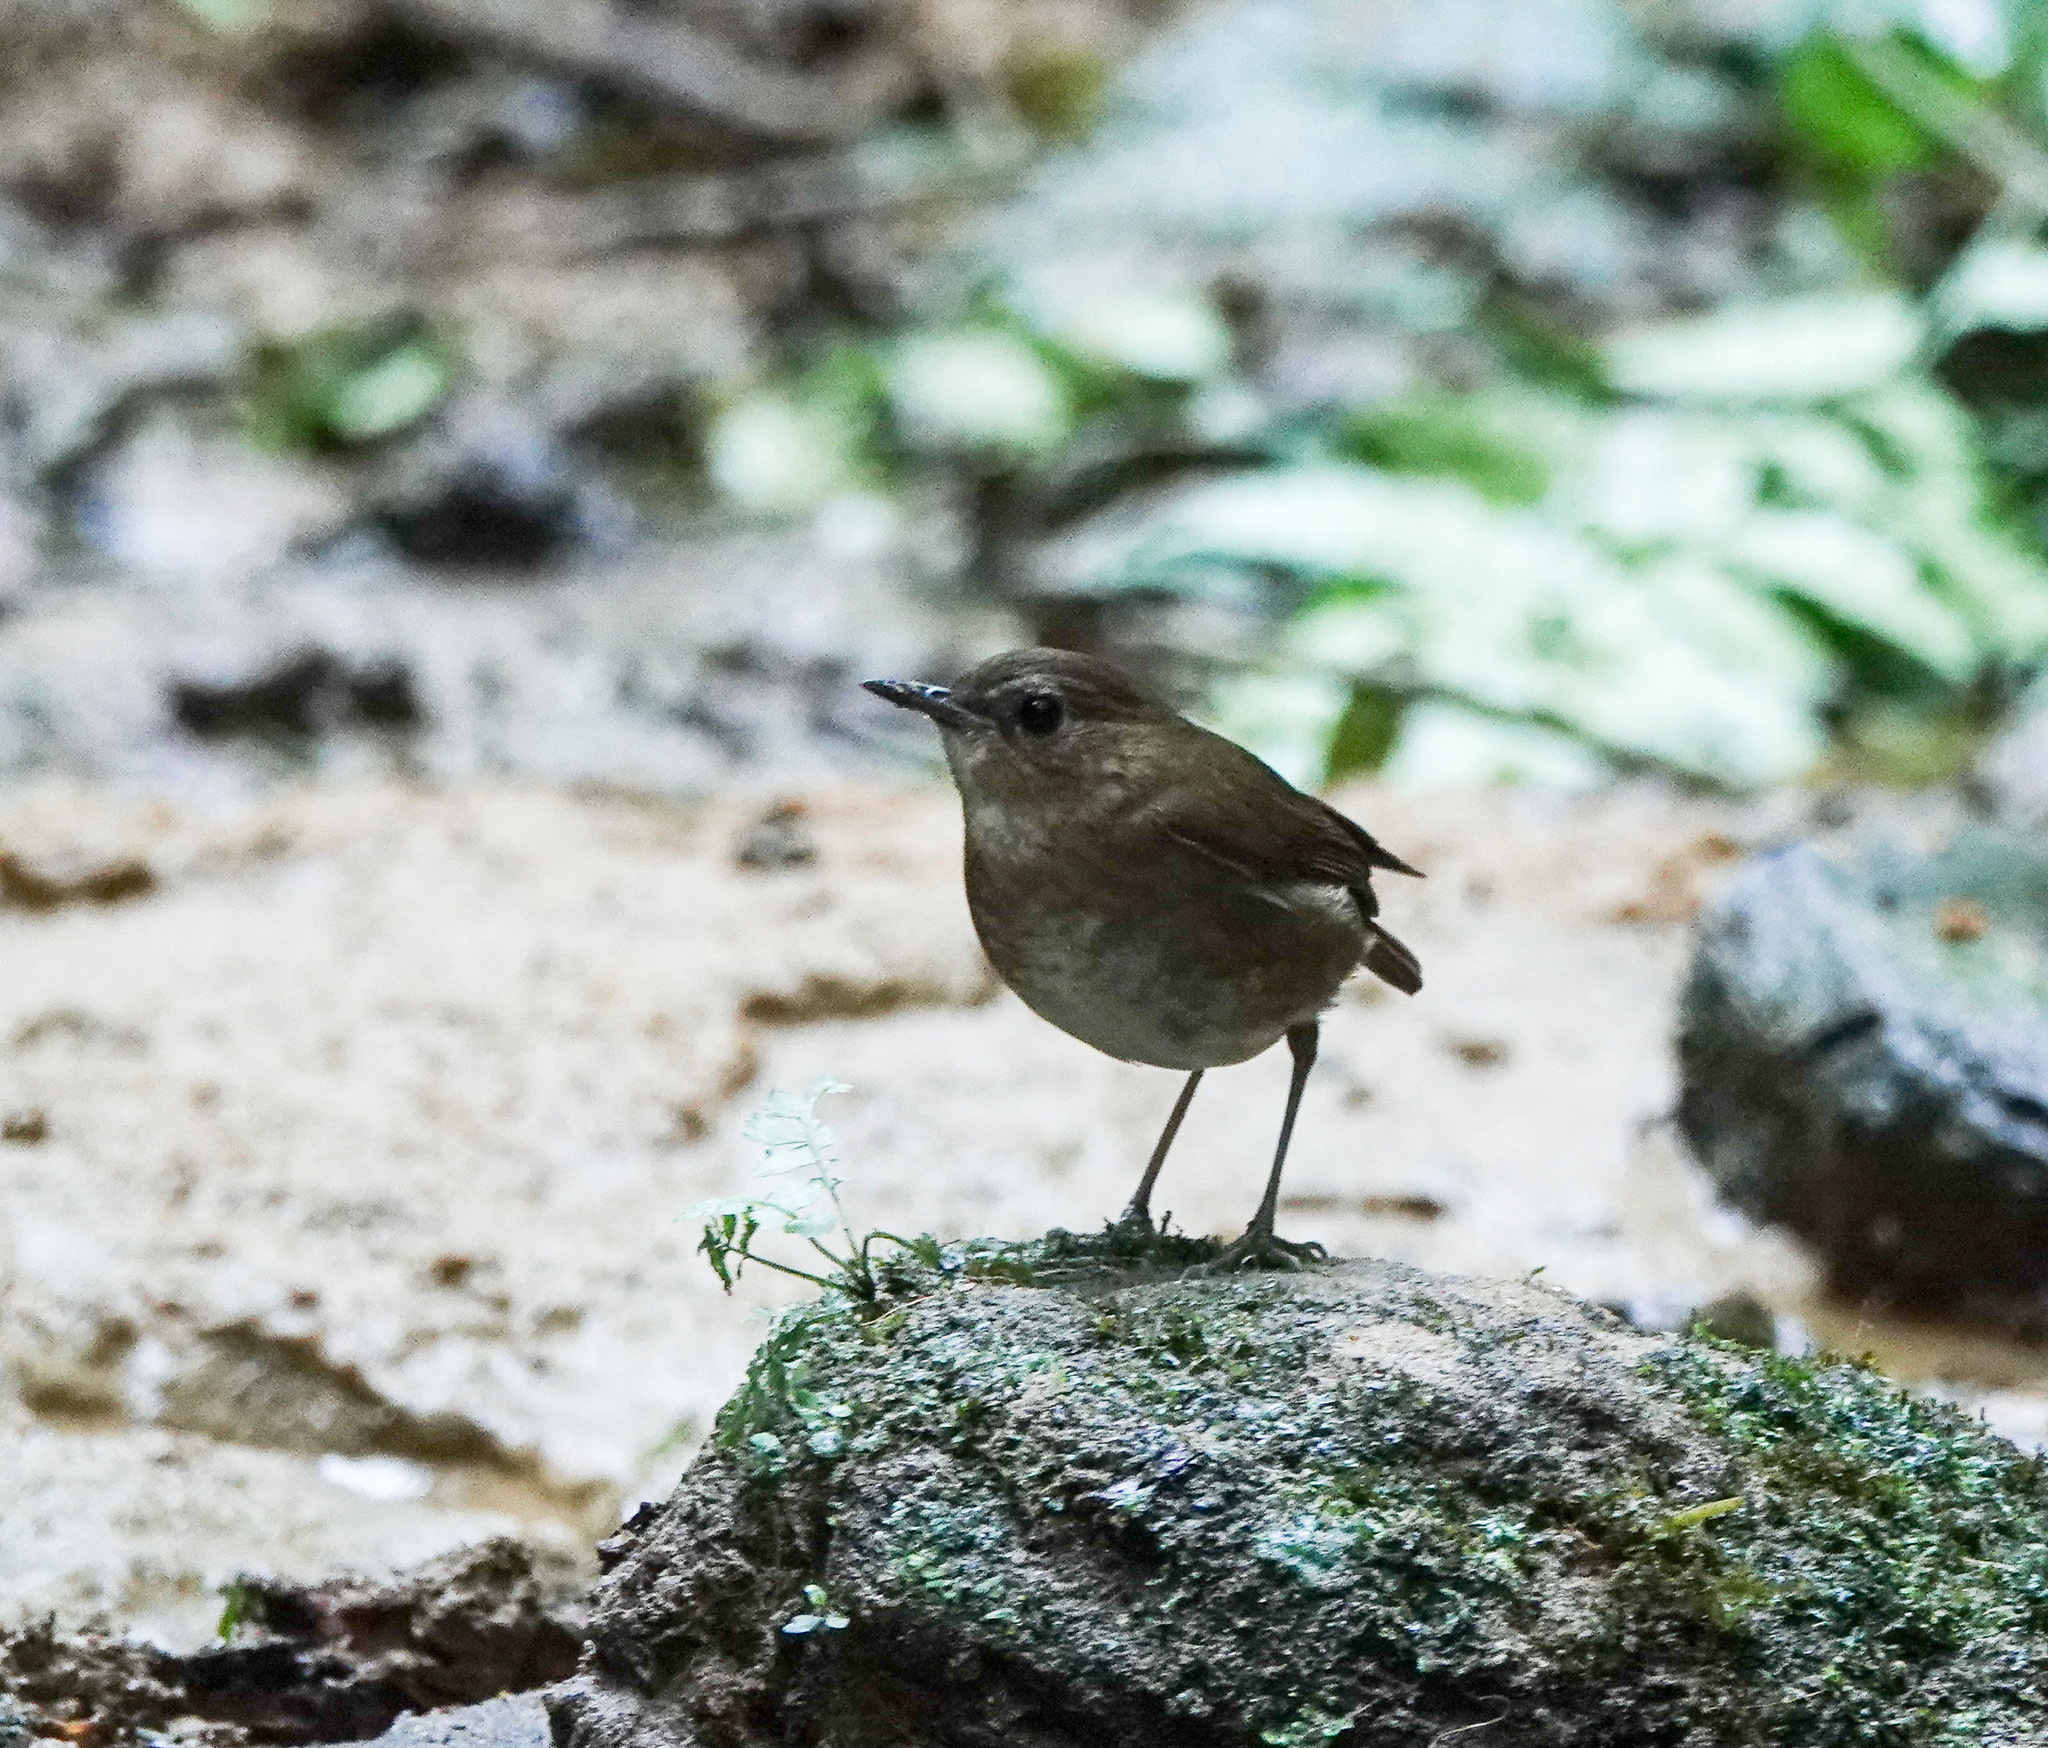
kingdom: Animalia
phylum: Chordata
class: Aves
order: Passeriformes
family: Muscicapidae
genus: Brachypteryx
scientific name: Brachypteryx leucophris
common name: Lesser shortwing
